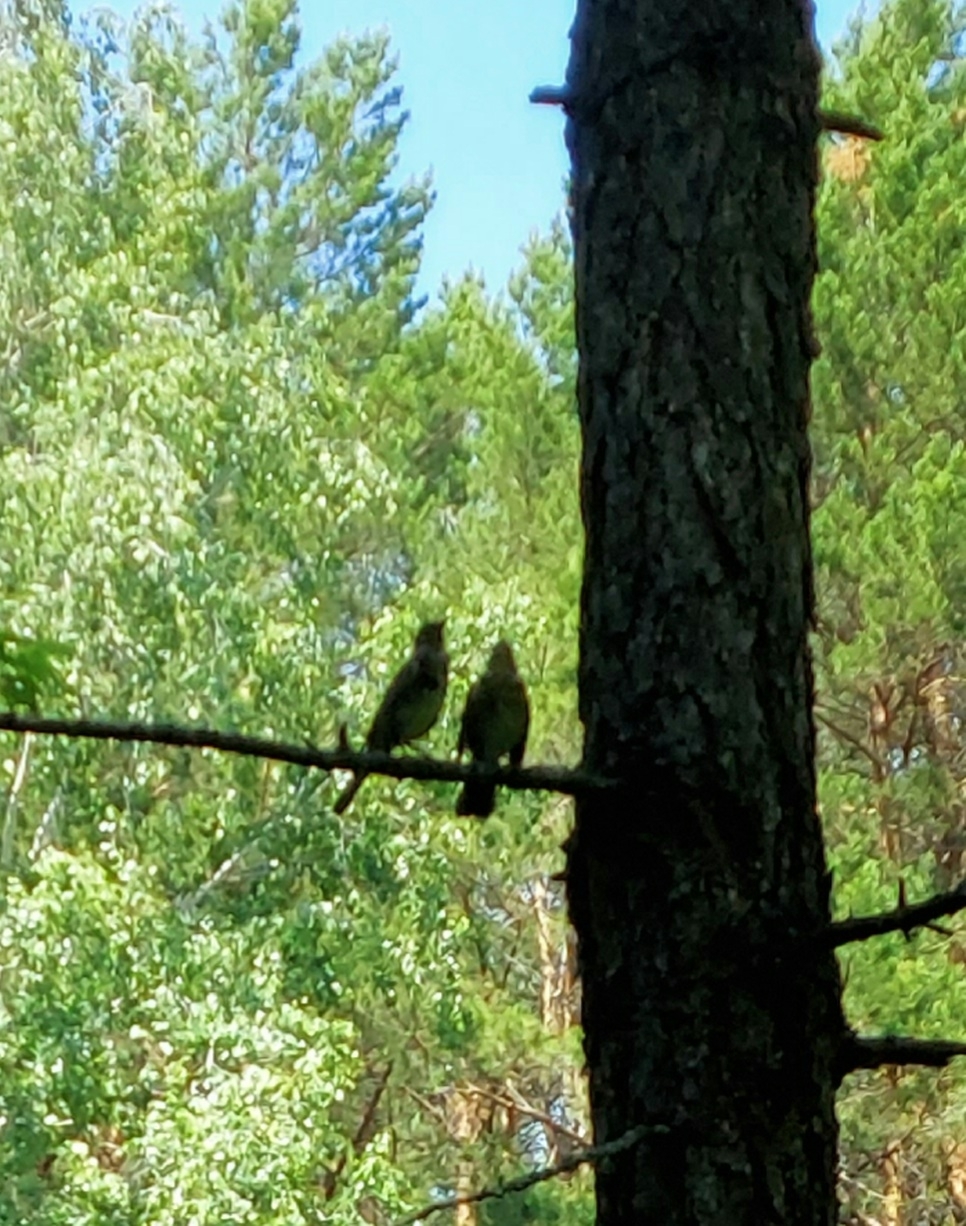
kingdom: Animalia
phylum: Chordata
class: Aves
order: Passeriformes
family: Turdidae
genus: Turdus
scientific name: Turdus pilaris
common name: Fieldfare
